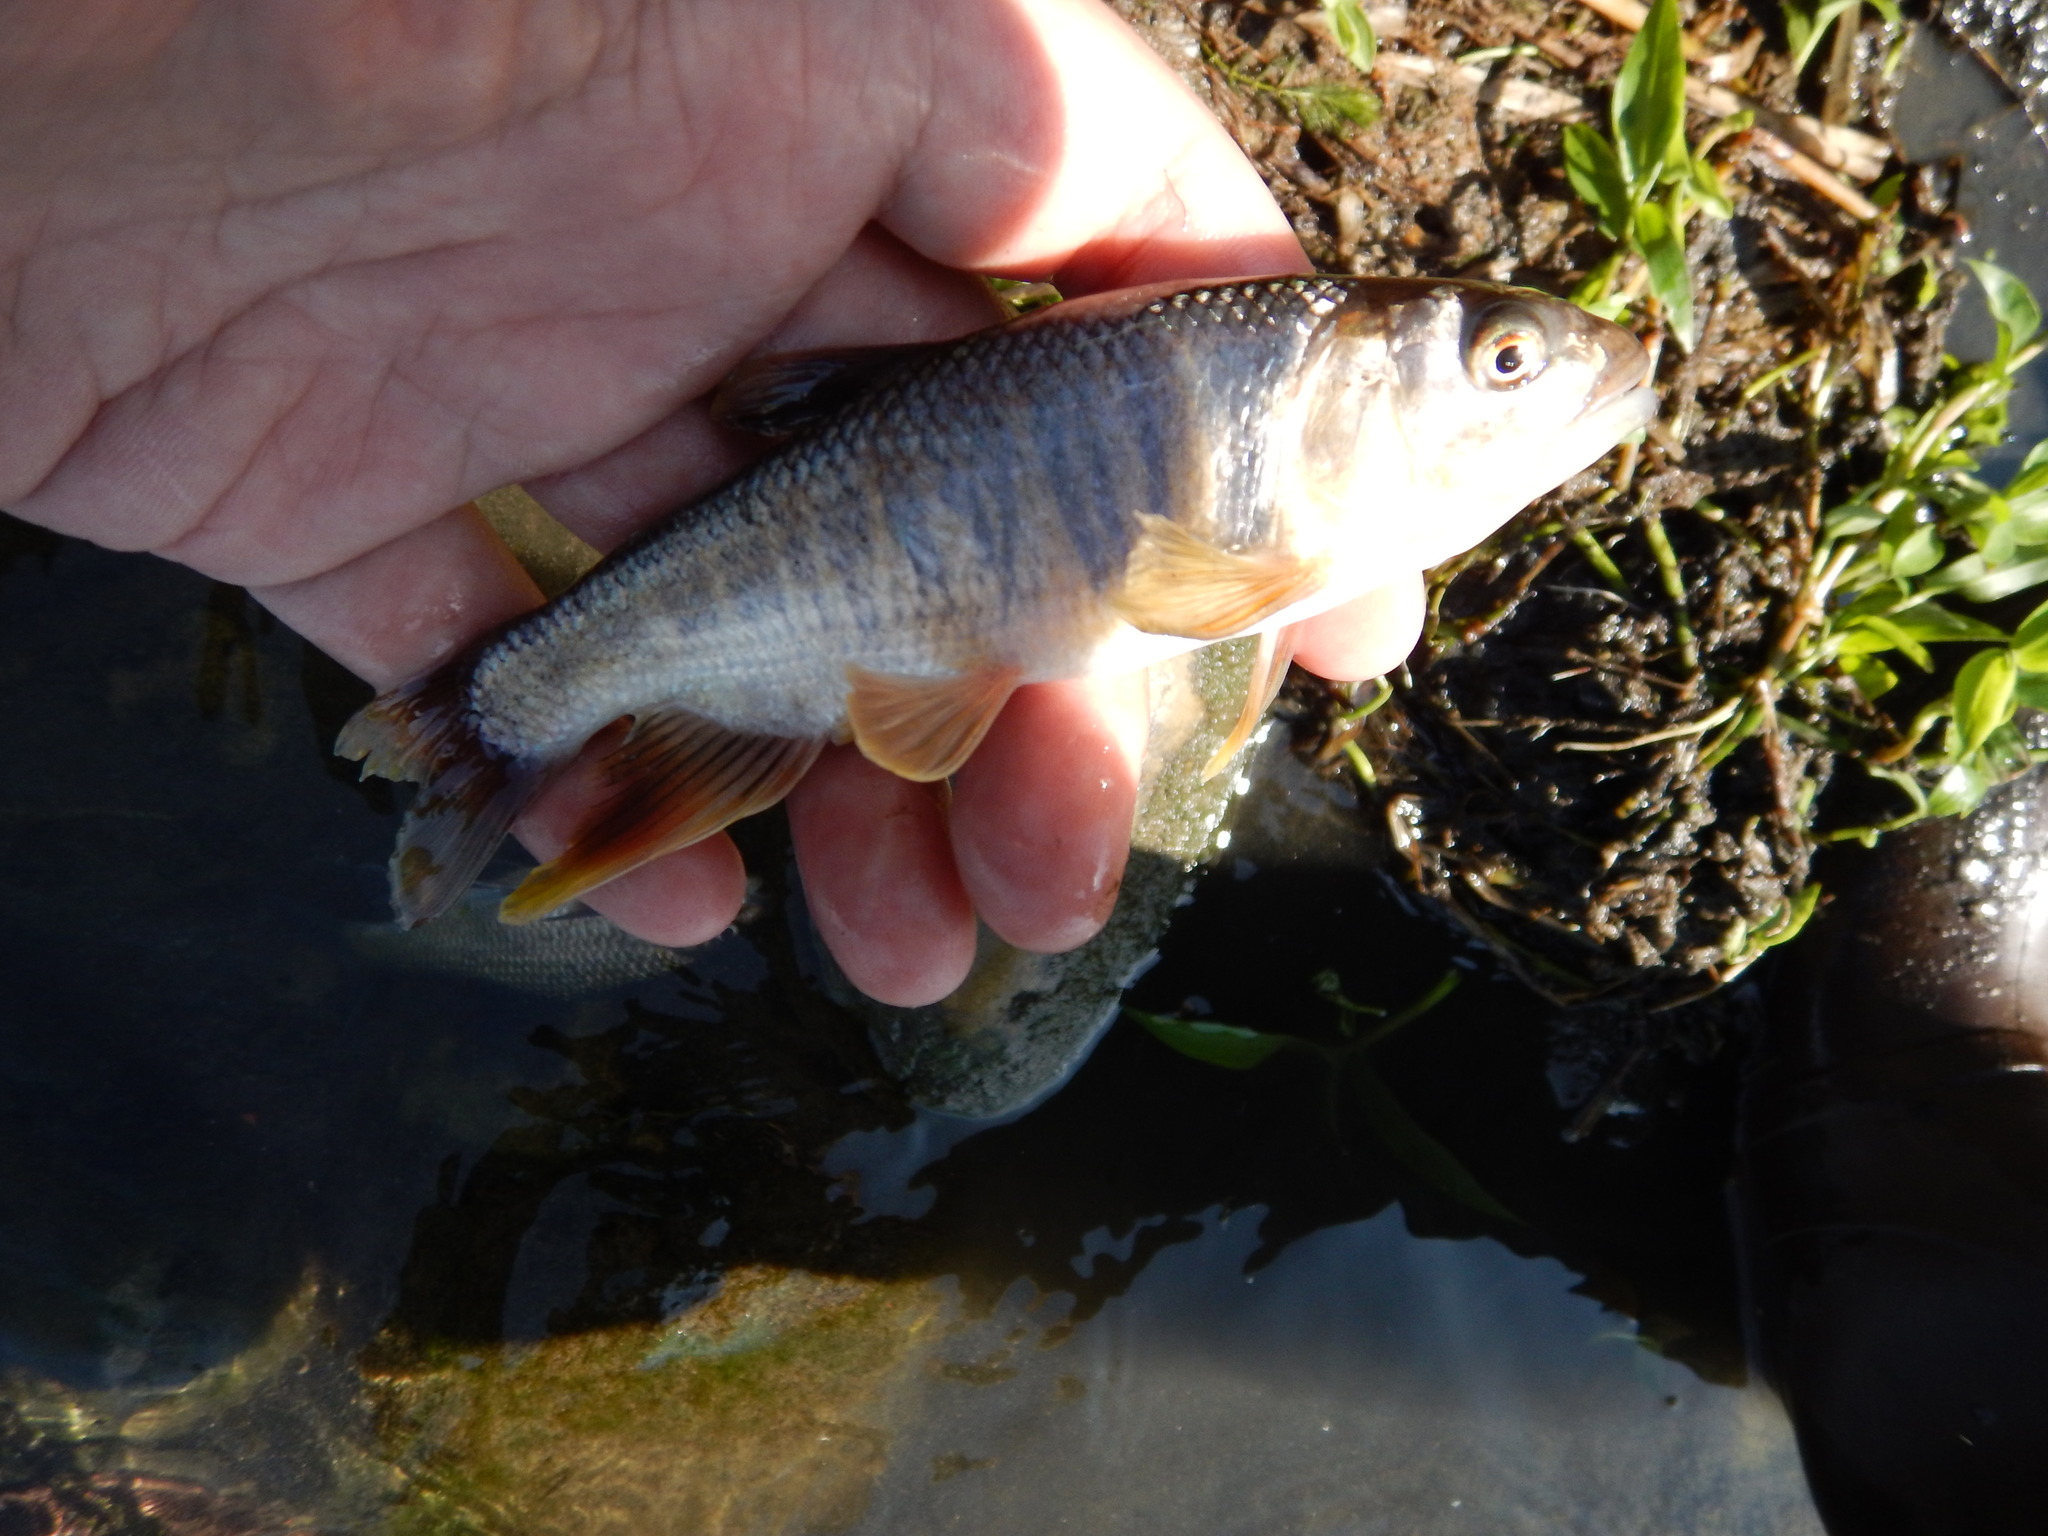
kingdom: Animalia
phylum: Chordata
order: Cypriniformes
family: Cyprinidae
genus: Opsariichthys
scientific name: Opsariichthys pachycephalus
